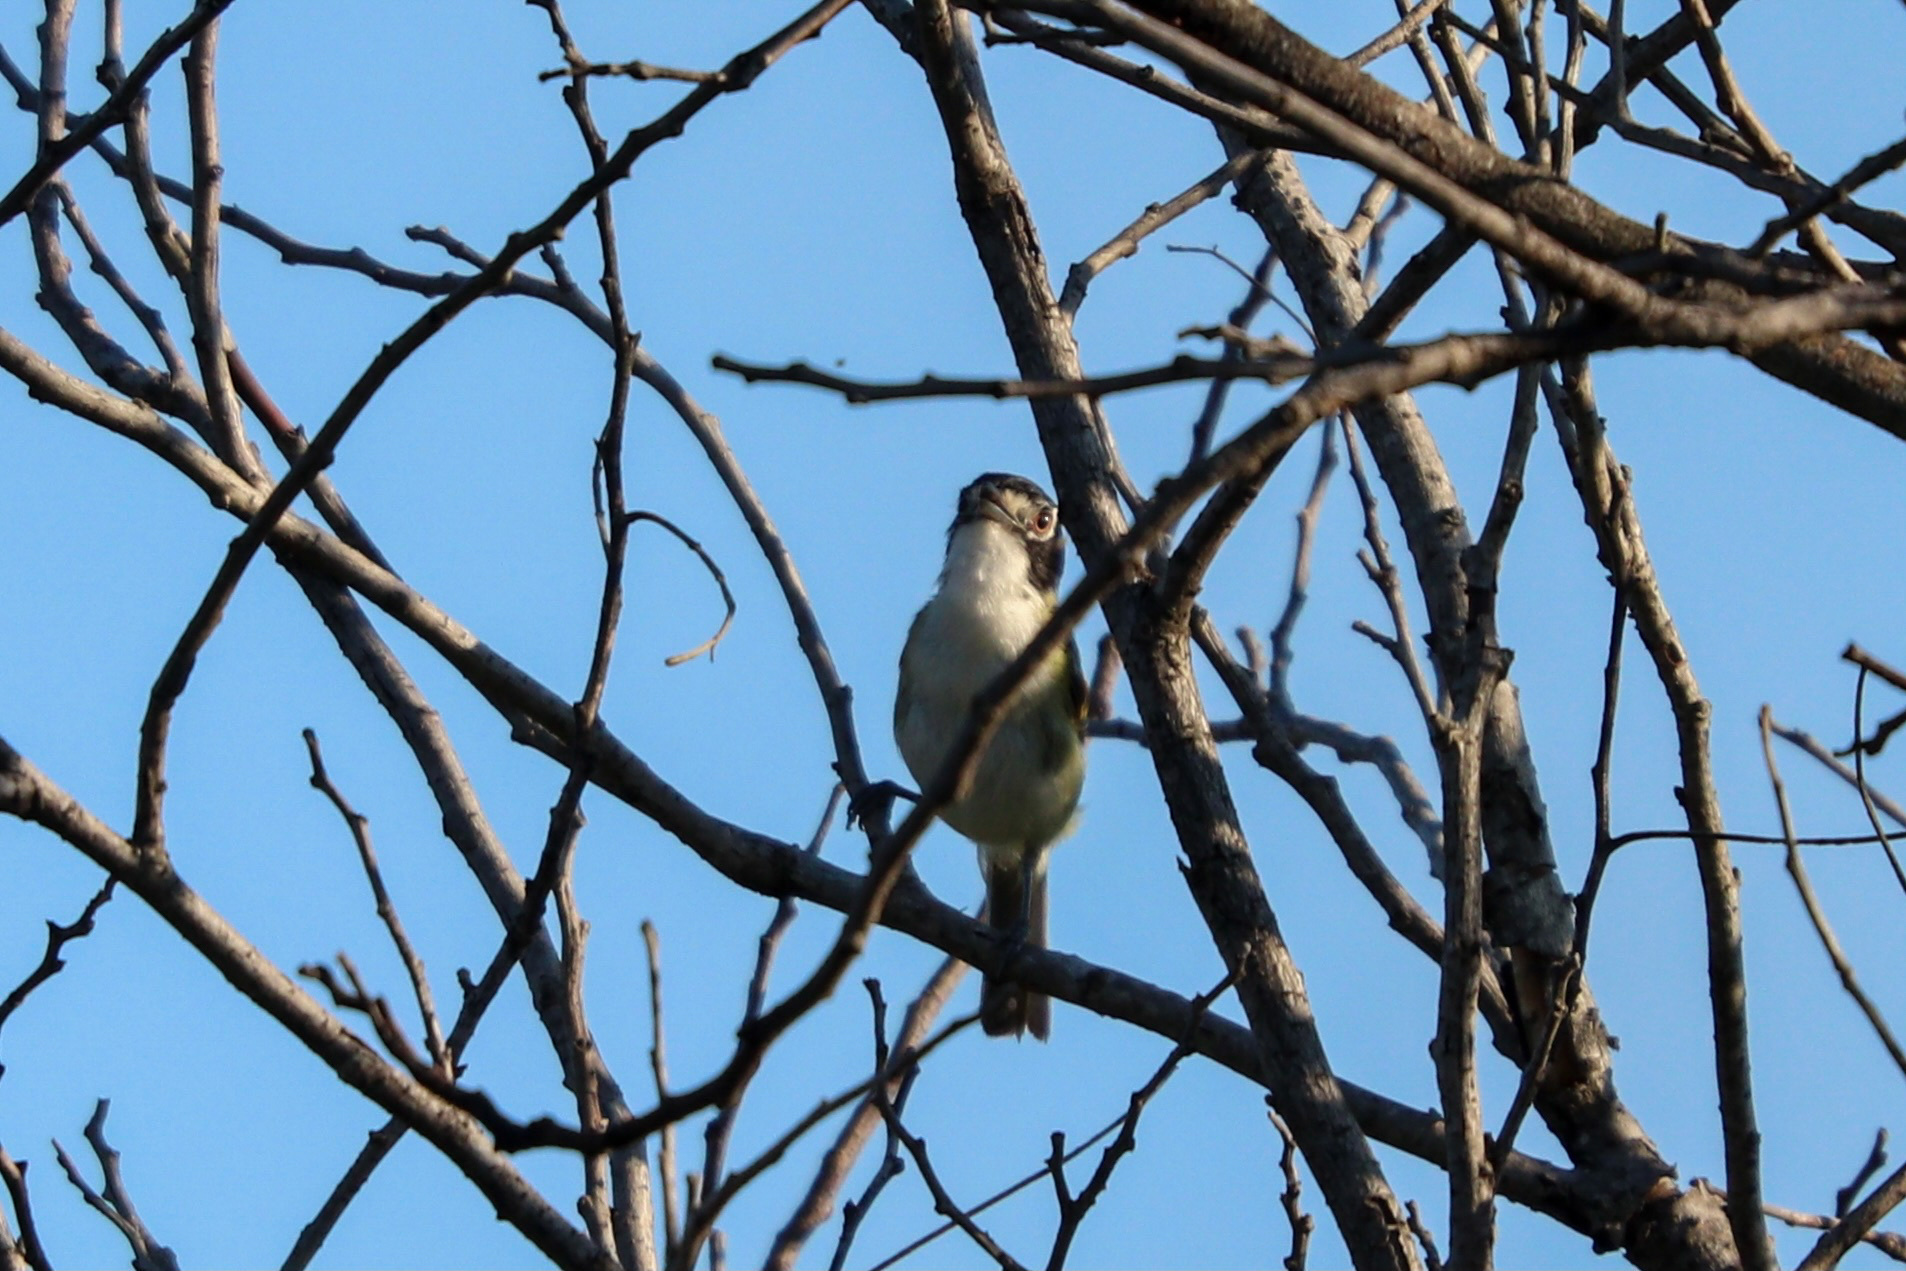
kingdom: Animalia
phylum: Chordata
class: Aves
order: Passeriformes
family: Vireonidae
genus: Vireo
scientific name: Vireo atricapilla
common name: Black-capped vireo
